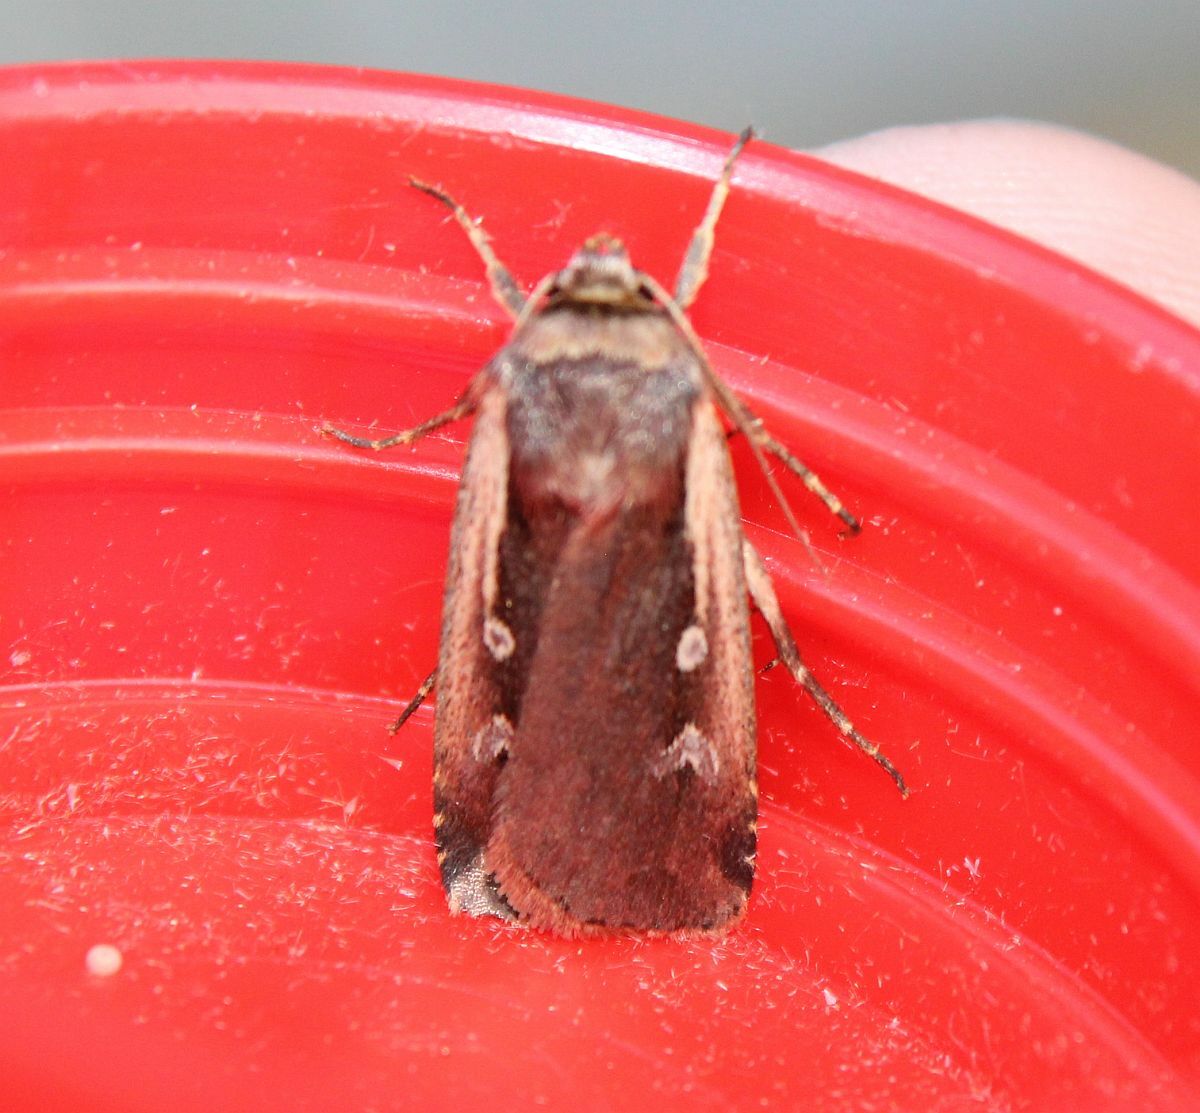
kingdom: Animalia
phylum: Arthropoda
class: Insecta
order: Lepidoptera
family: Noctuidae
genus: Ochropleura
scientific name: Ochropleura plecta
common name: Flame shoulder
